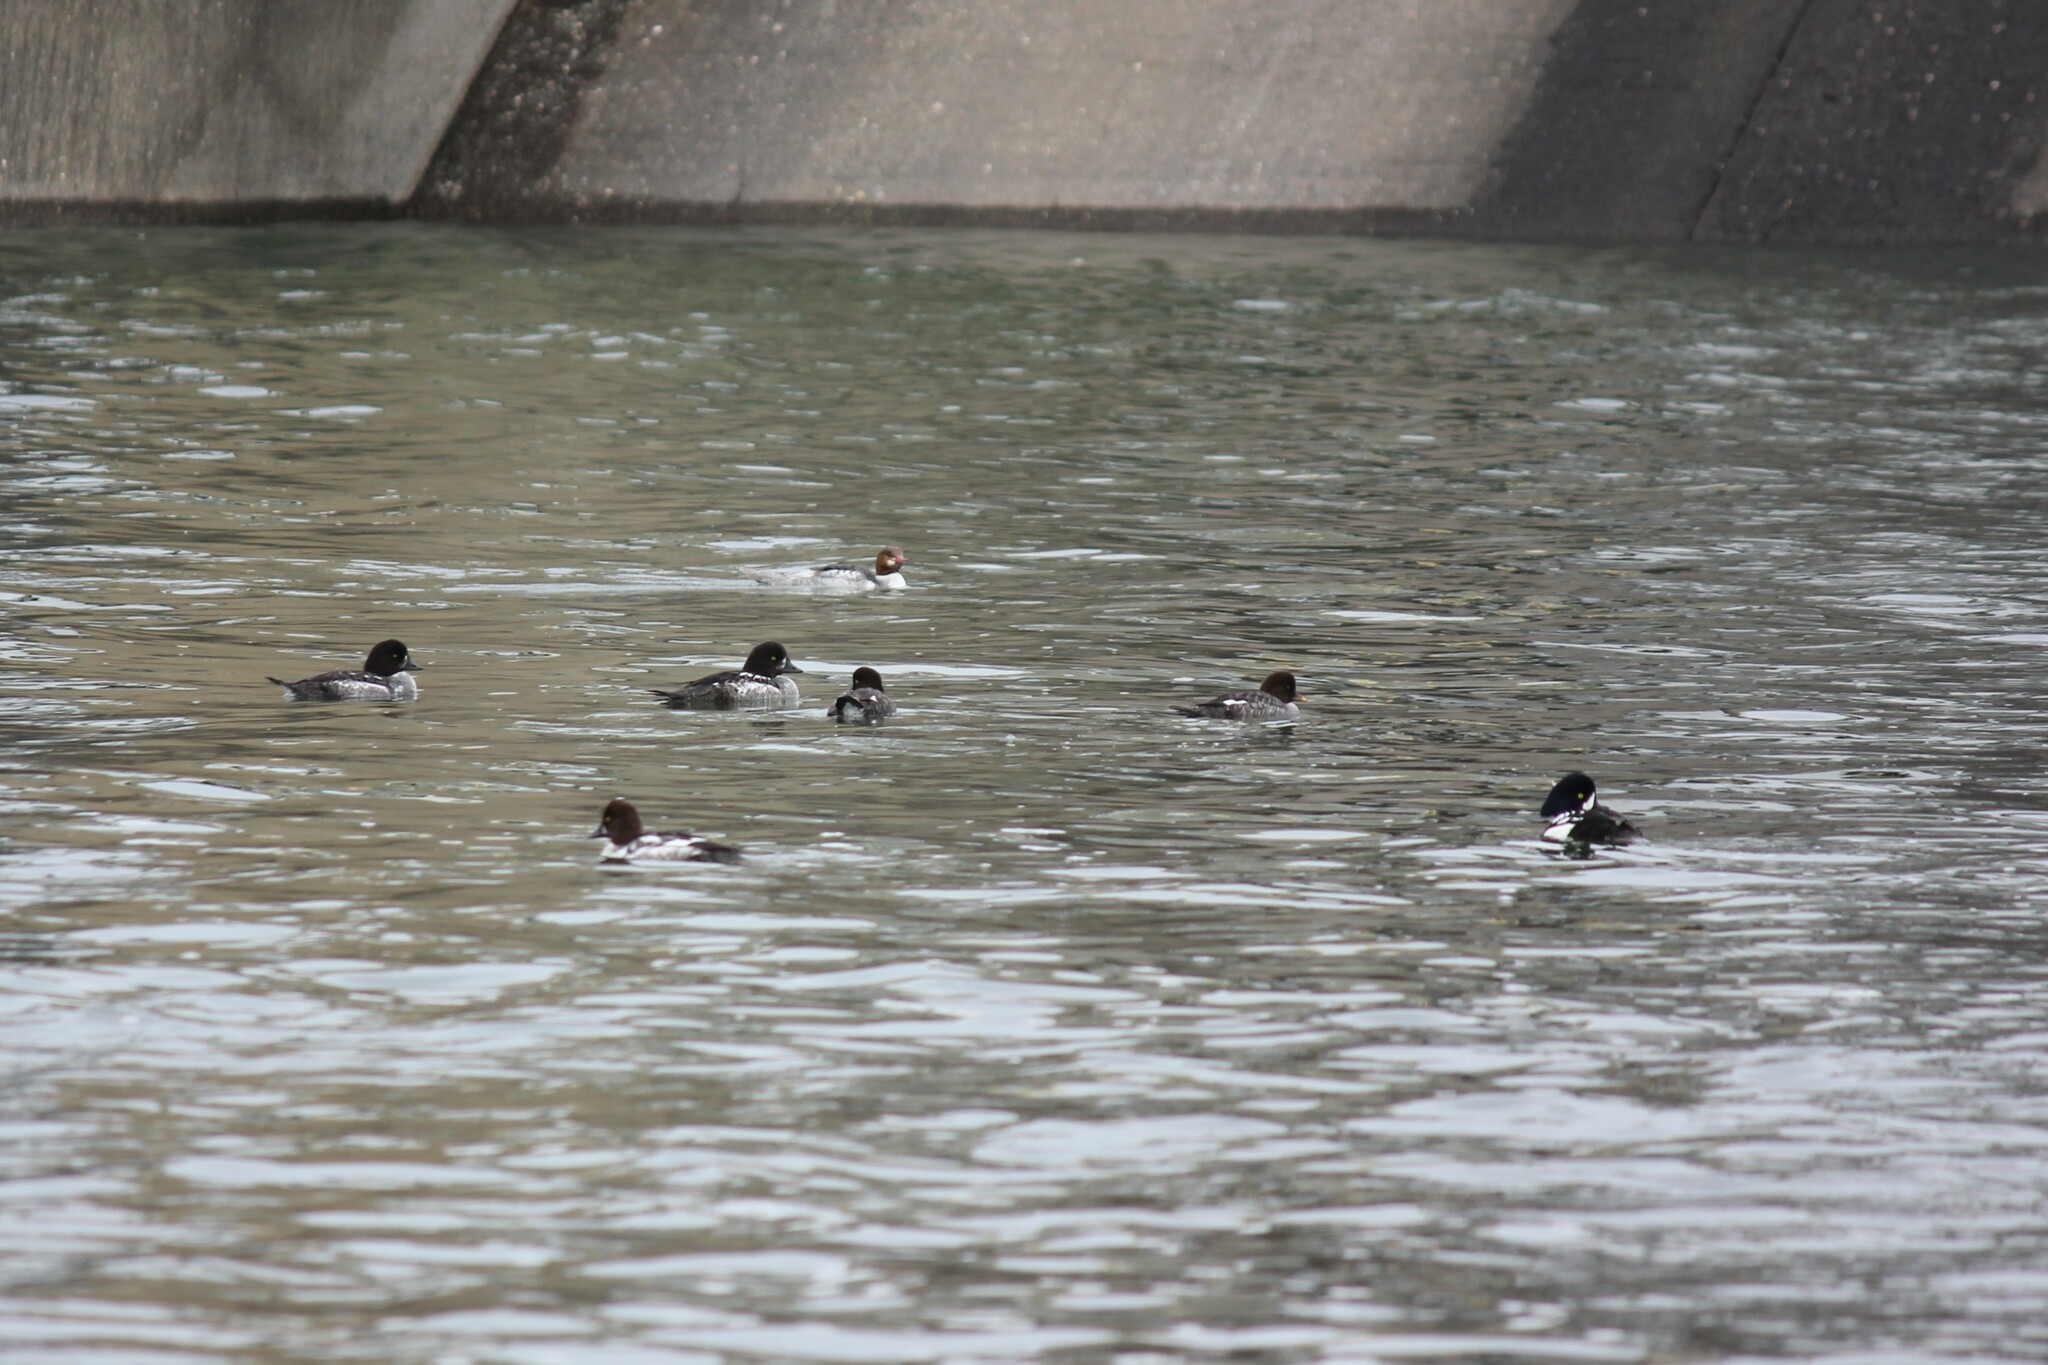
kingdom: Animalia
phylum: Chordata
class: Aves
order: Anseriformes
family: Anatidae
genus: Bucephala
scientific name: Bucephala islandica
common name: Barrow's goldeneye
